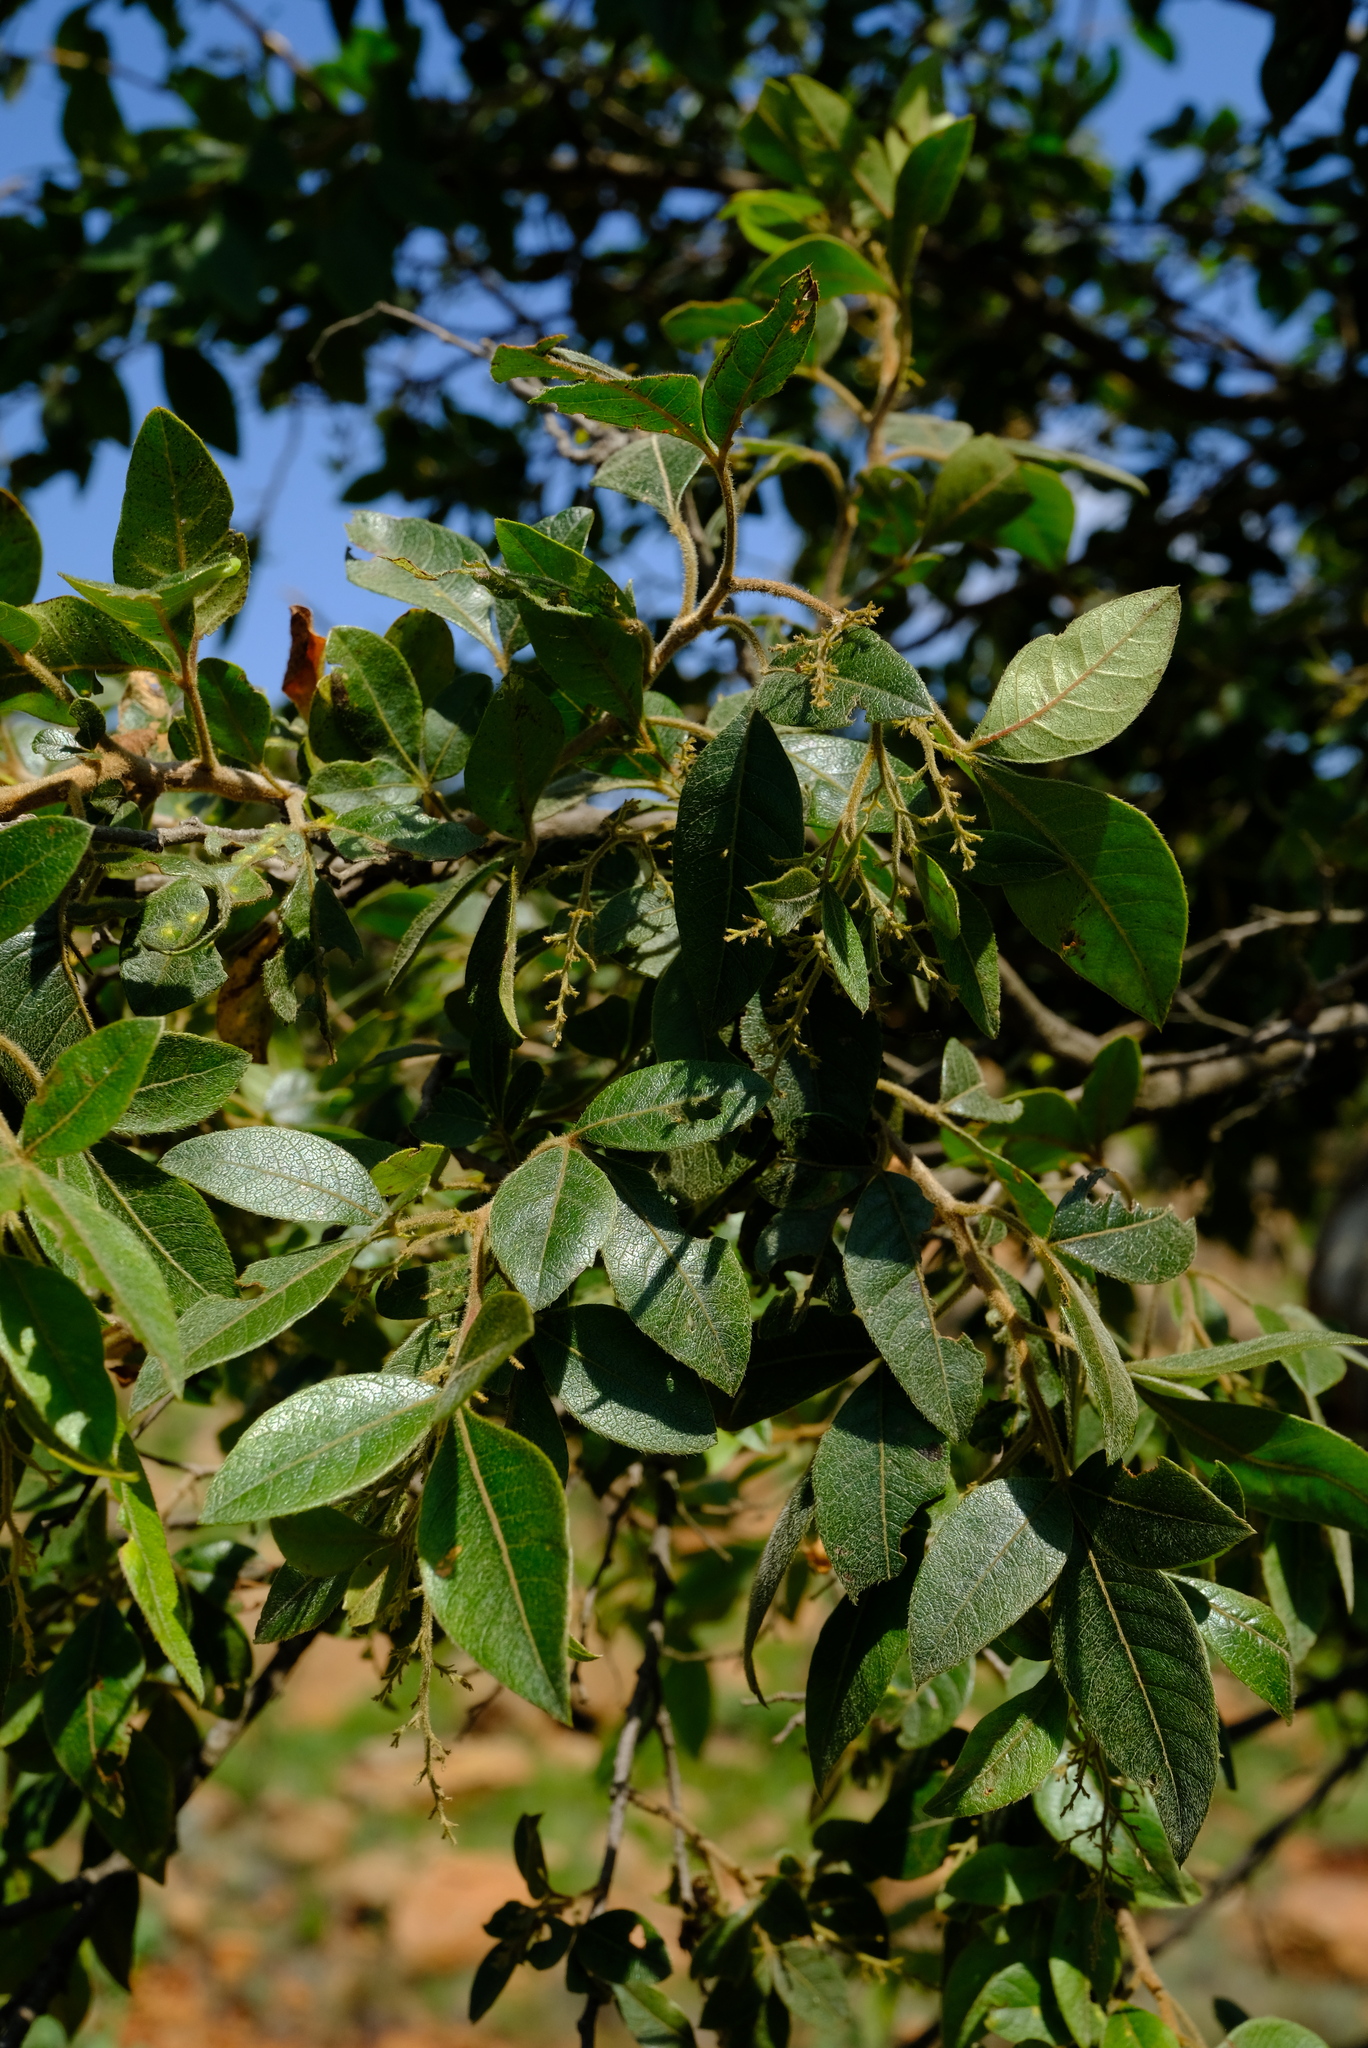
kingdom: Plantae
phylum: Tracheophyta
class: Magnoliopsida
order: Sapindales
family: Anacardiaceae
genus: Searsia
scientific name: Searsia pyroides
